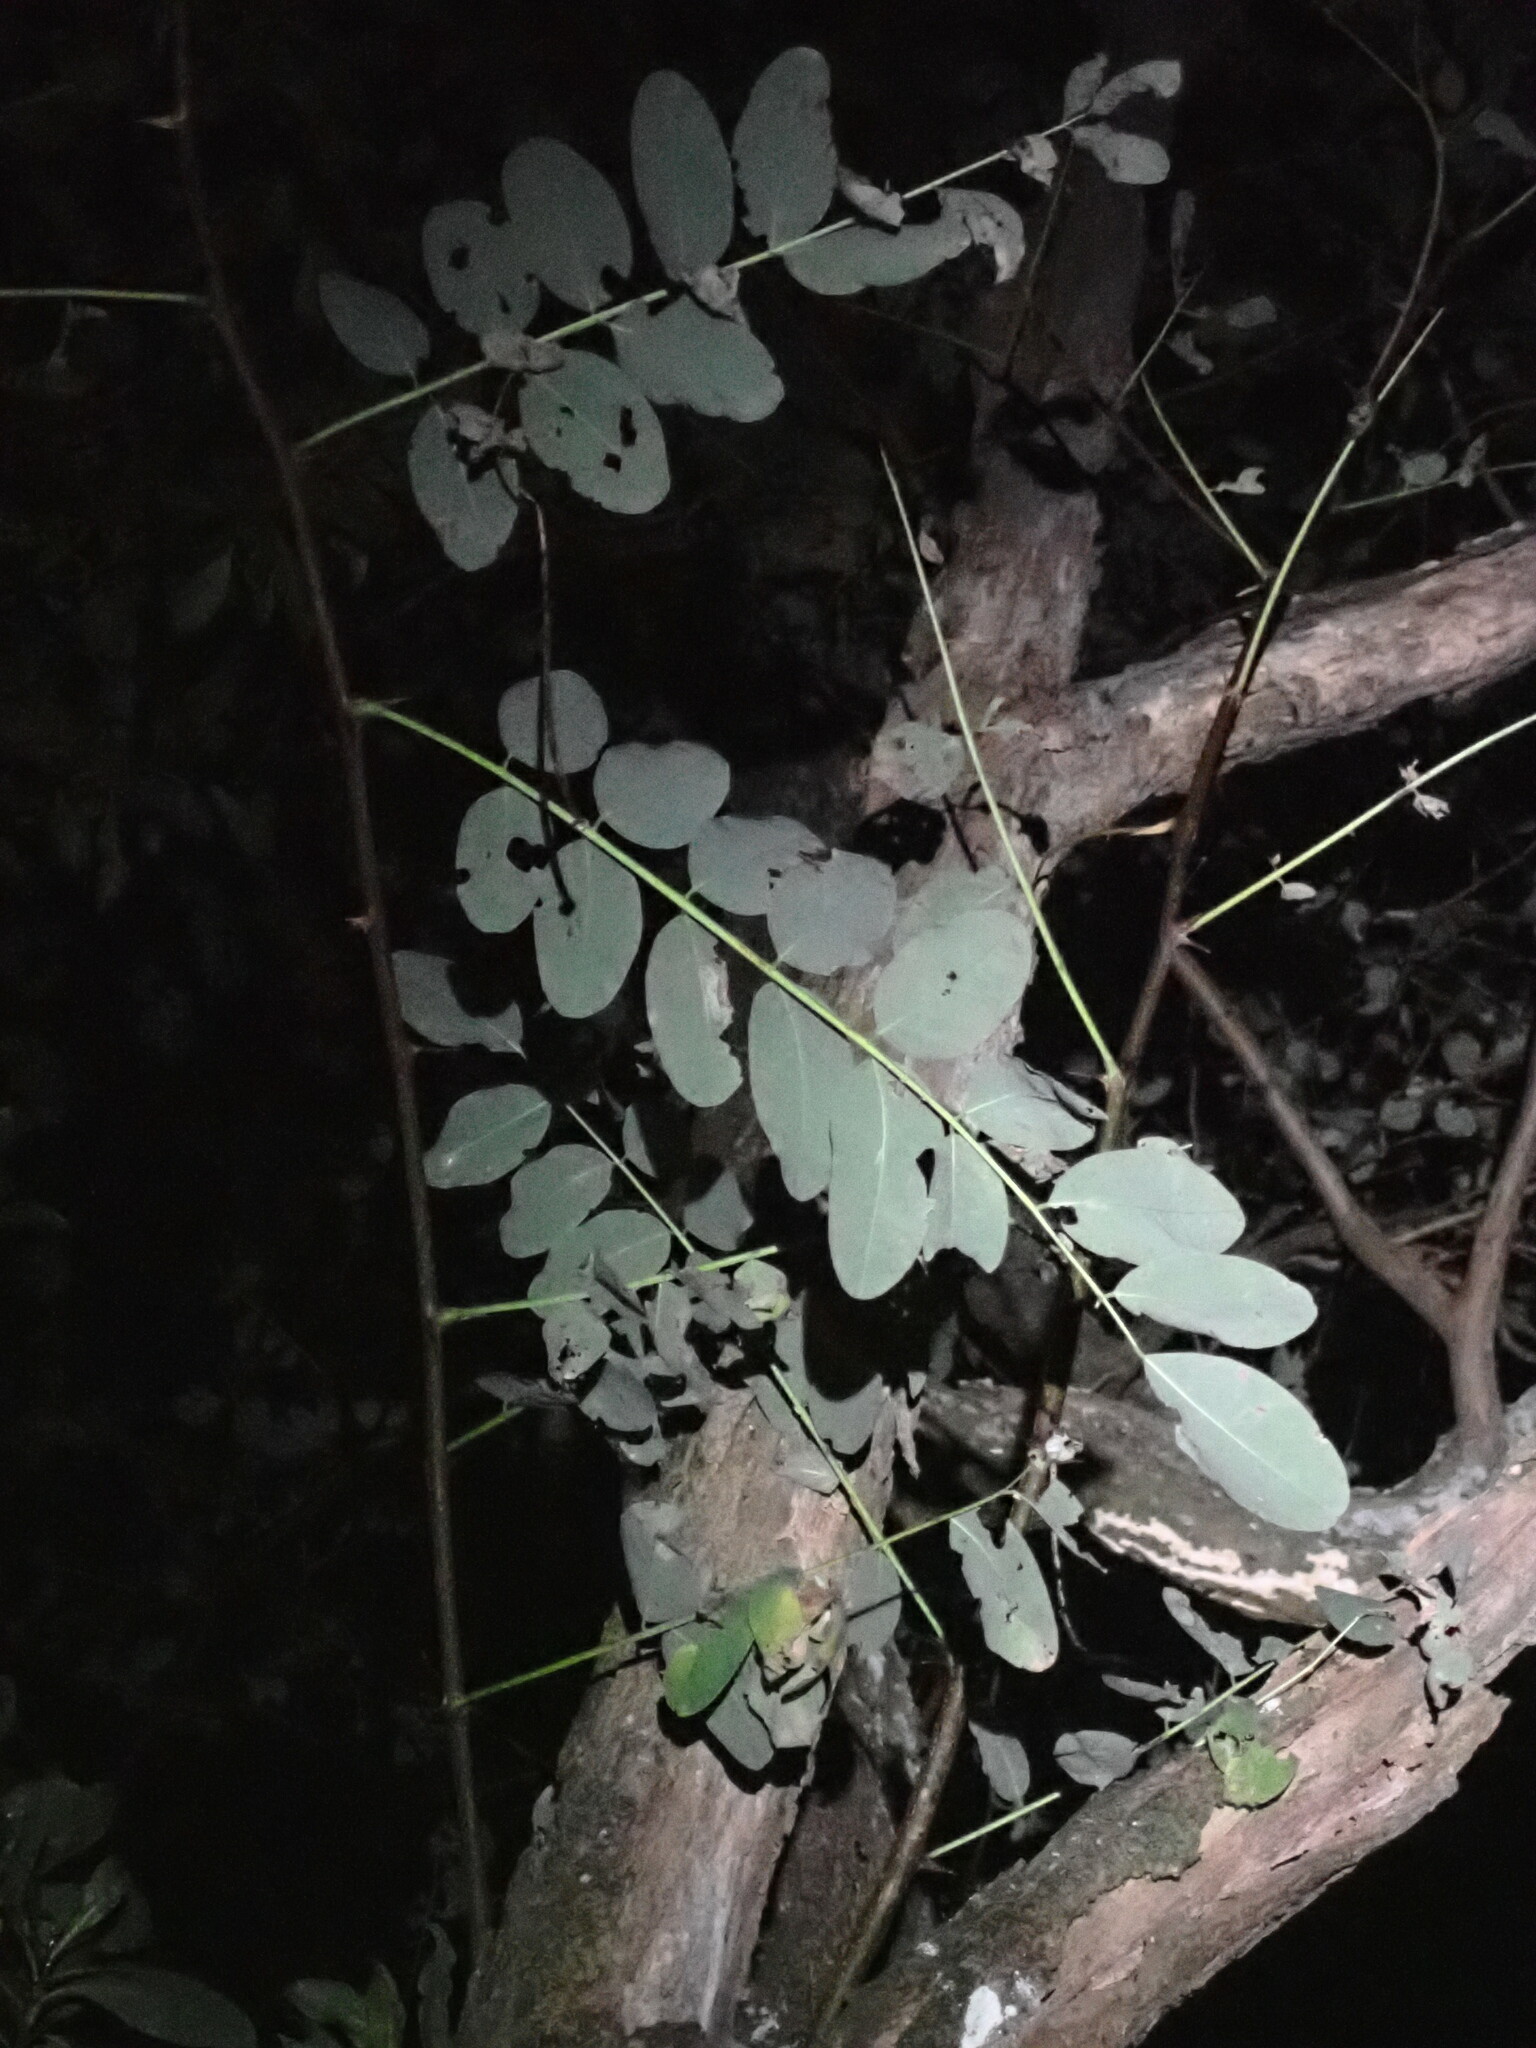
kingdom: Plantae
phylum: Tracheophyta
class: Magnoliopsida
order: Fabales
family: Fabaceae
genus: Robinia
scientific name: Robinia pseudoacacia
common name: Black locust
